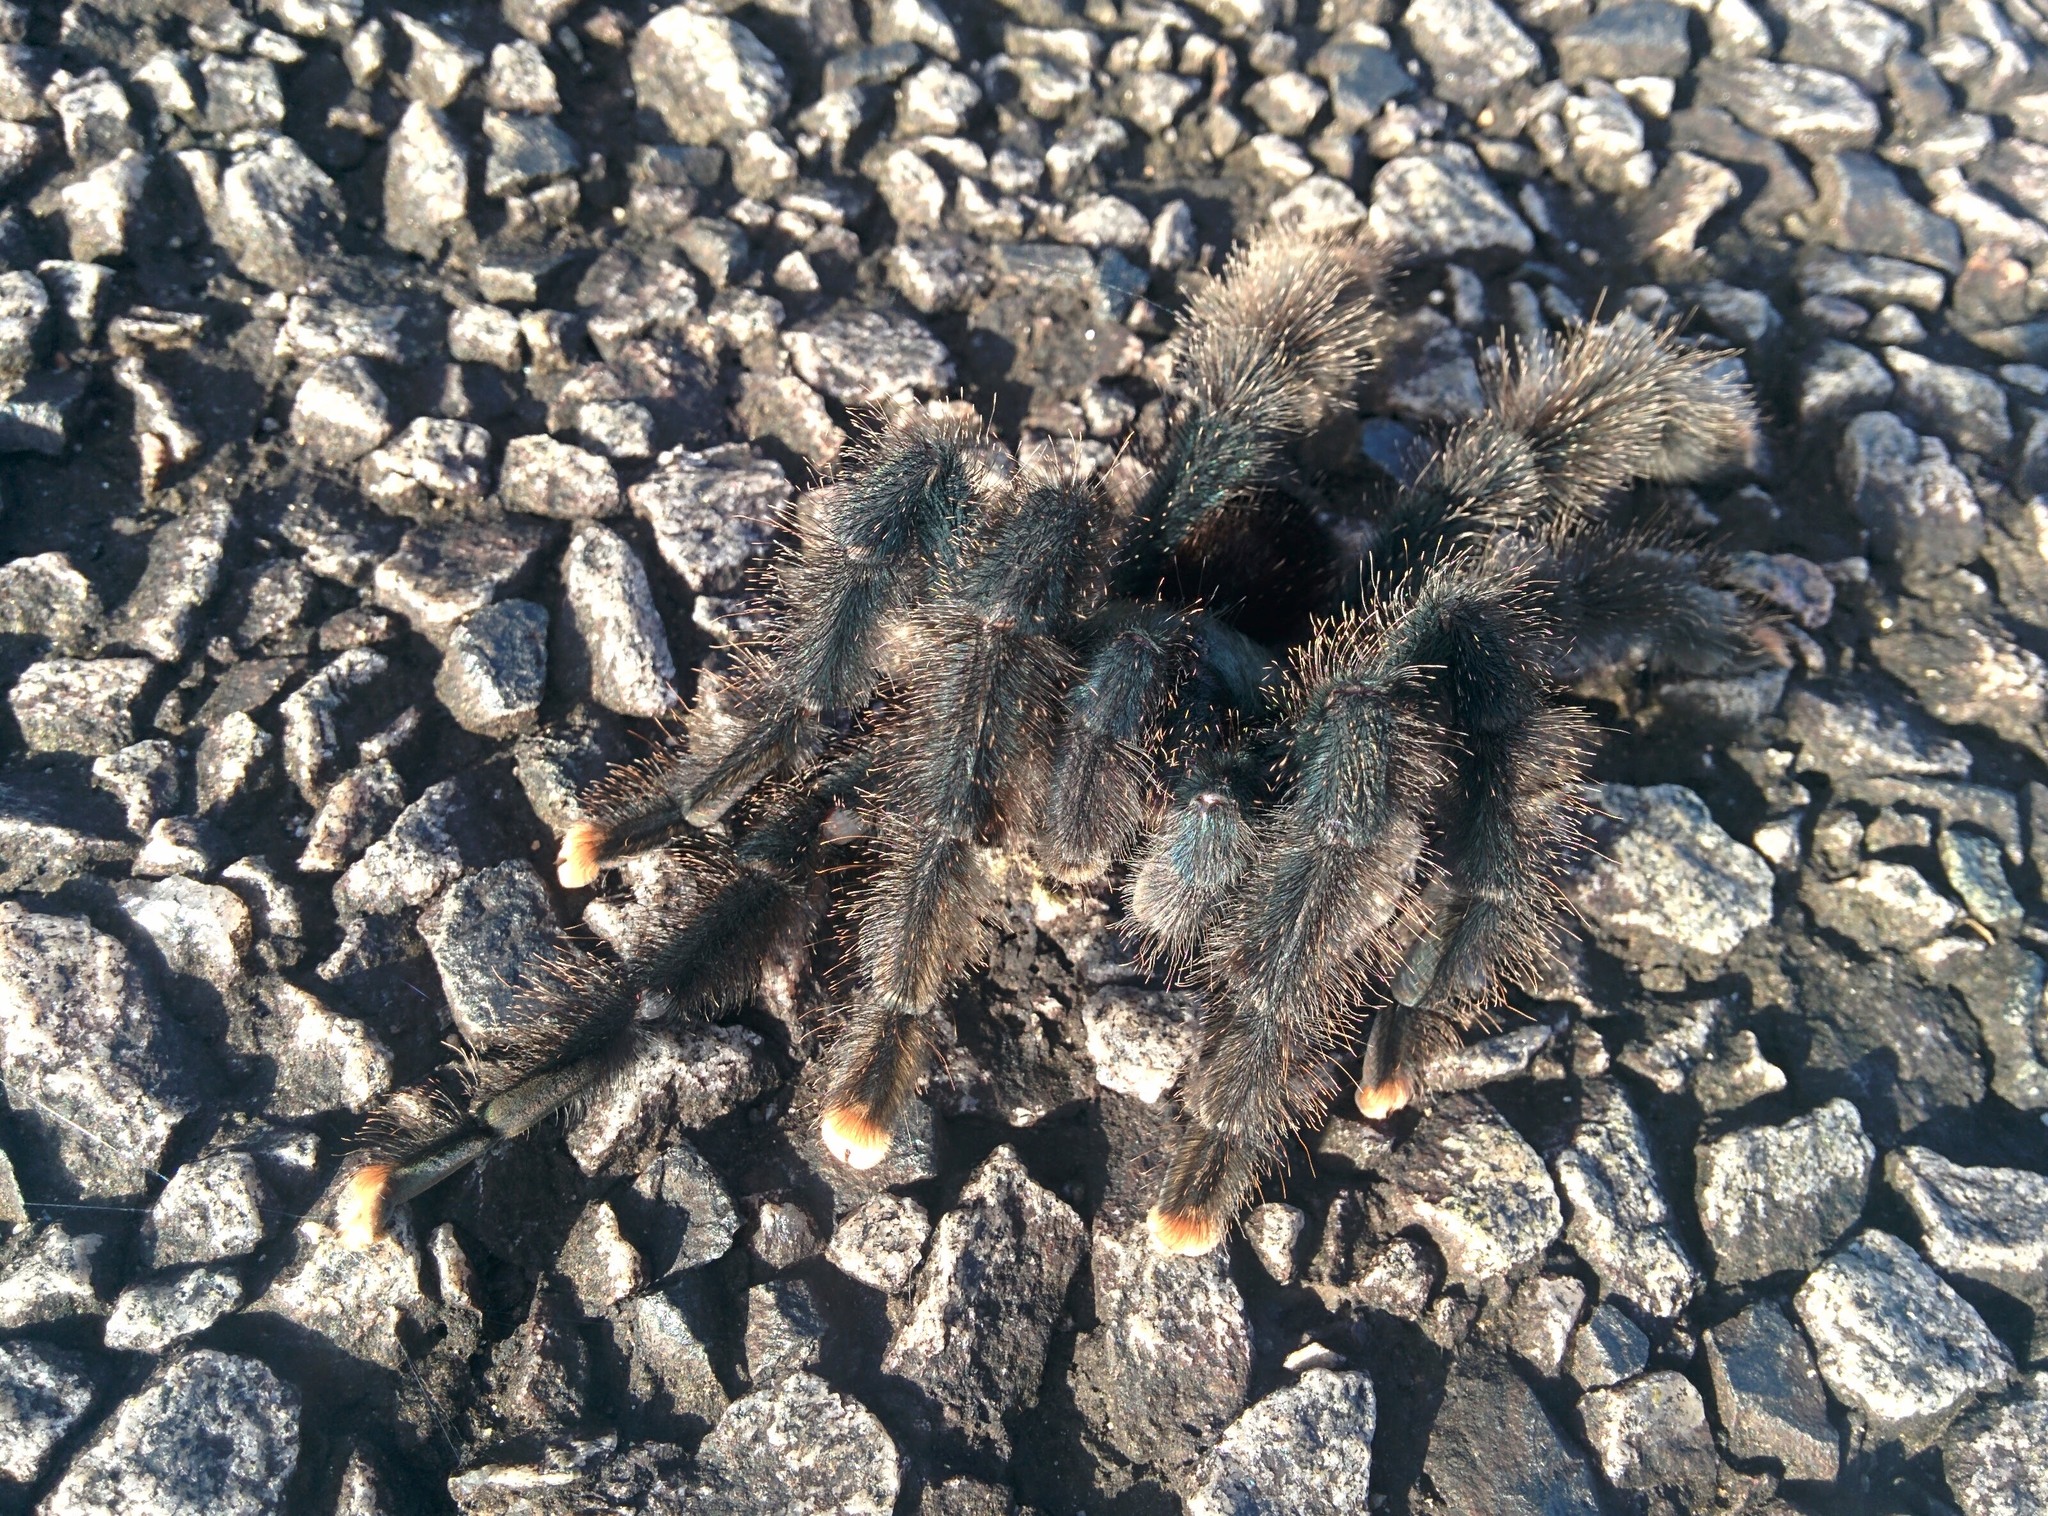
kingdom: Animalia
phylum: Arthropoda
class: Arachnida
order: Araneae
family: Theraphosidae
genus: Avicularia
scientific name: Avicularia avicularia
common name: Tarantula spiders
